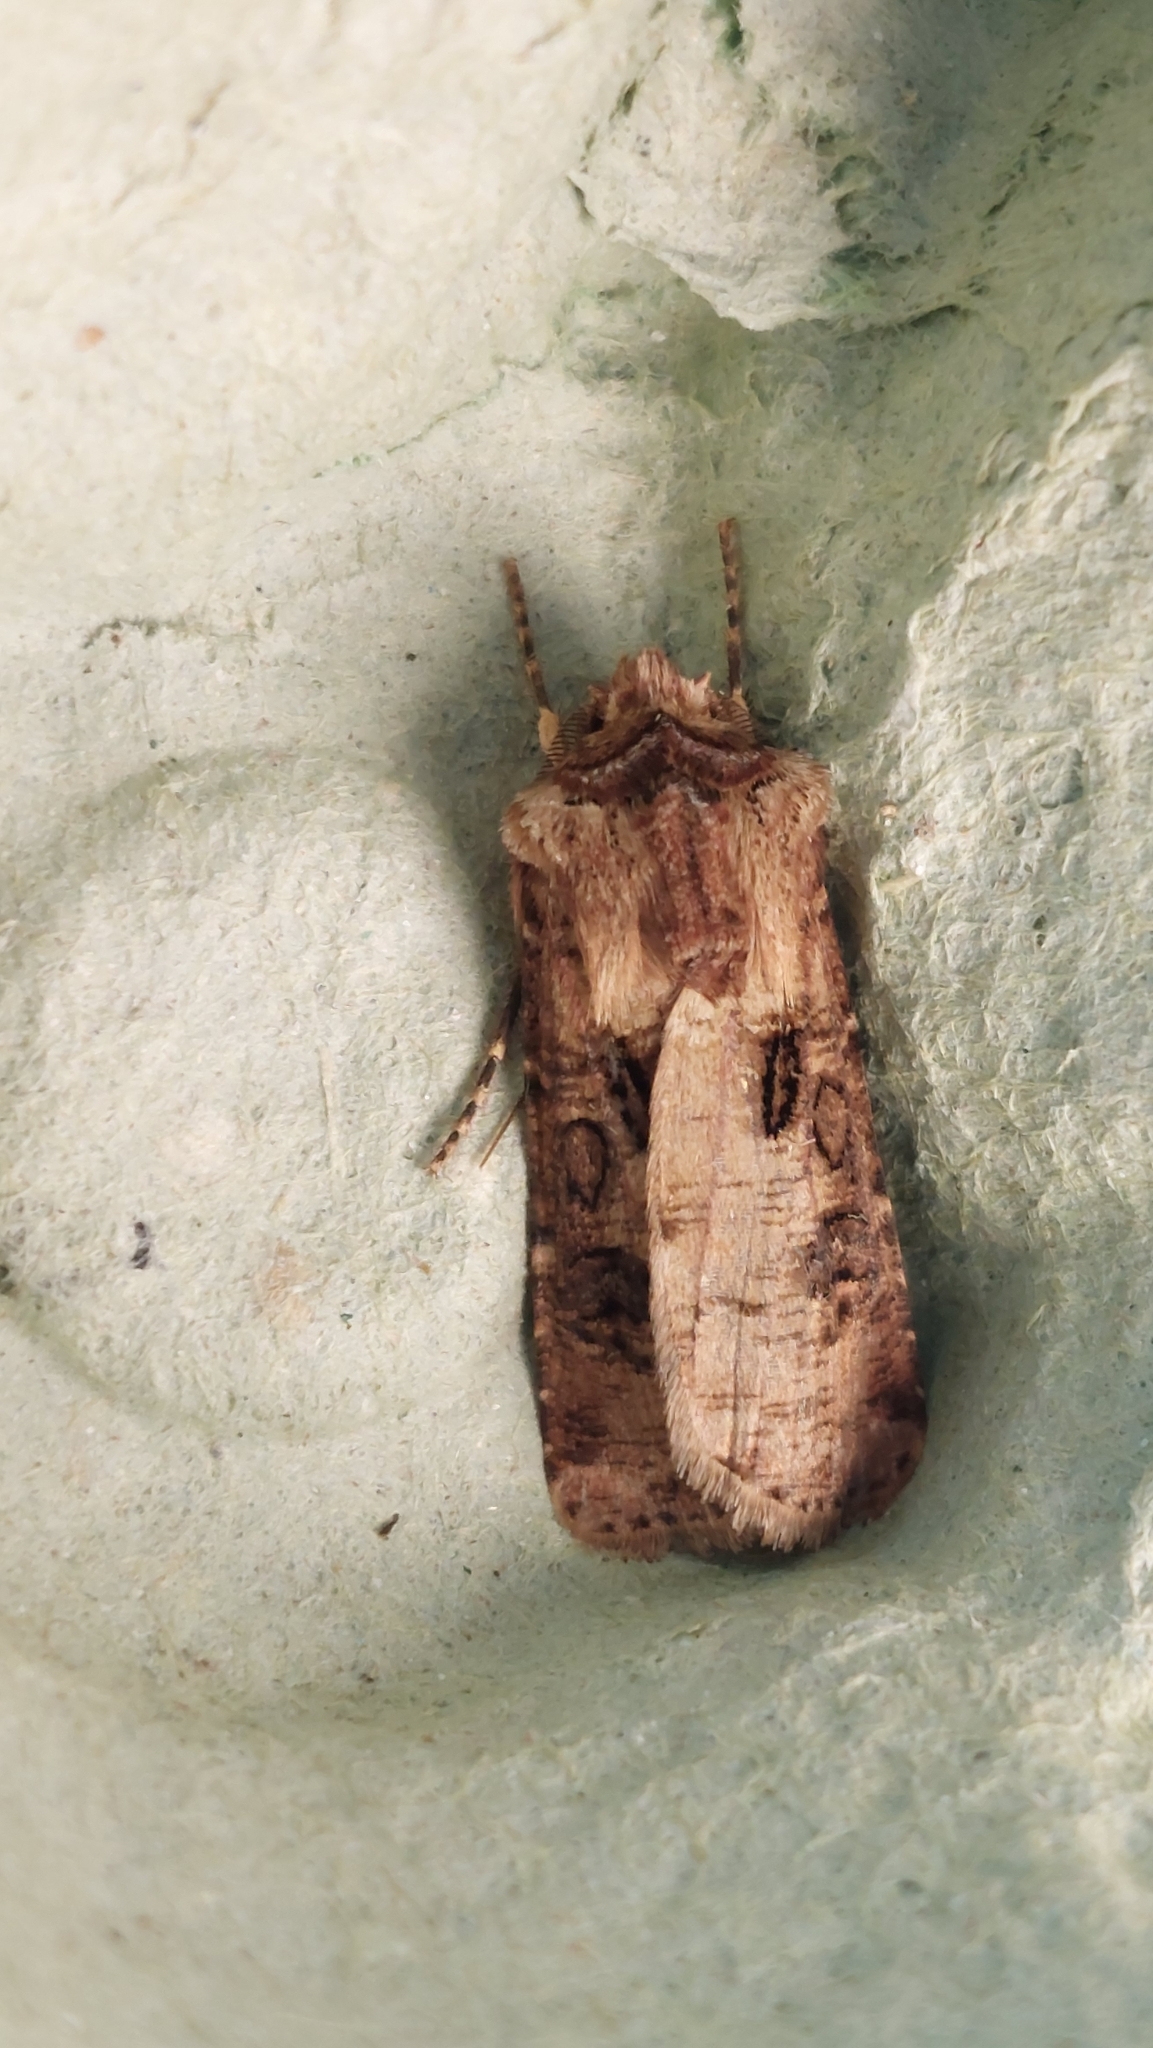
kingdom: Animalia
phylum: Arthropoda
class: Insecta
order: Lepidoptera
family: Noctuidae
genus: Agrotis
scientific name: Agrotis clavis
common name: Heart and club
